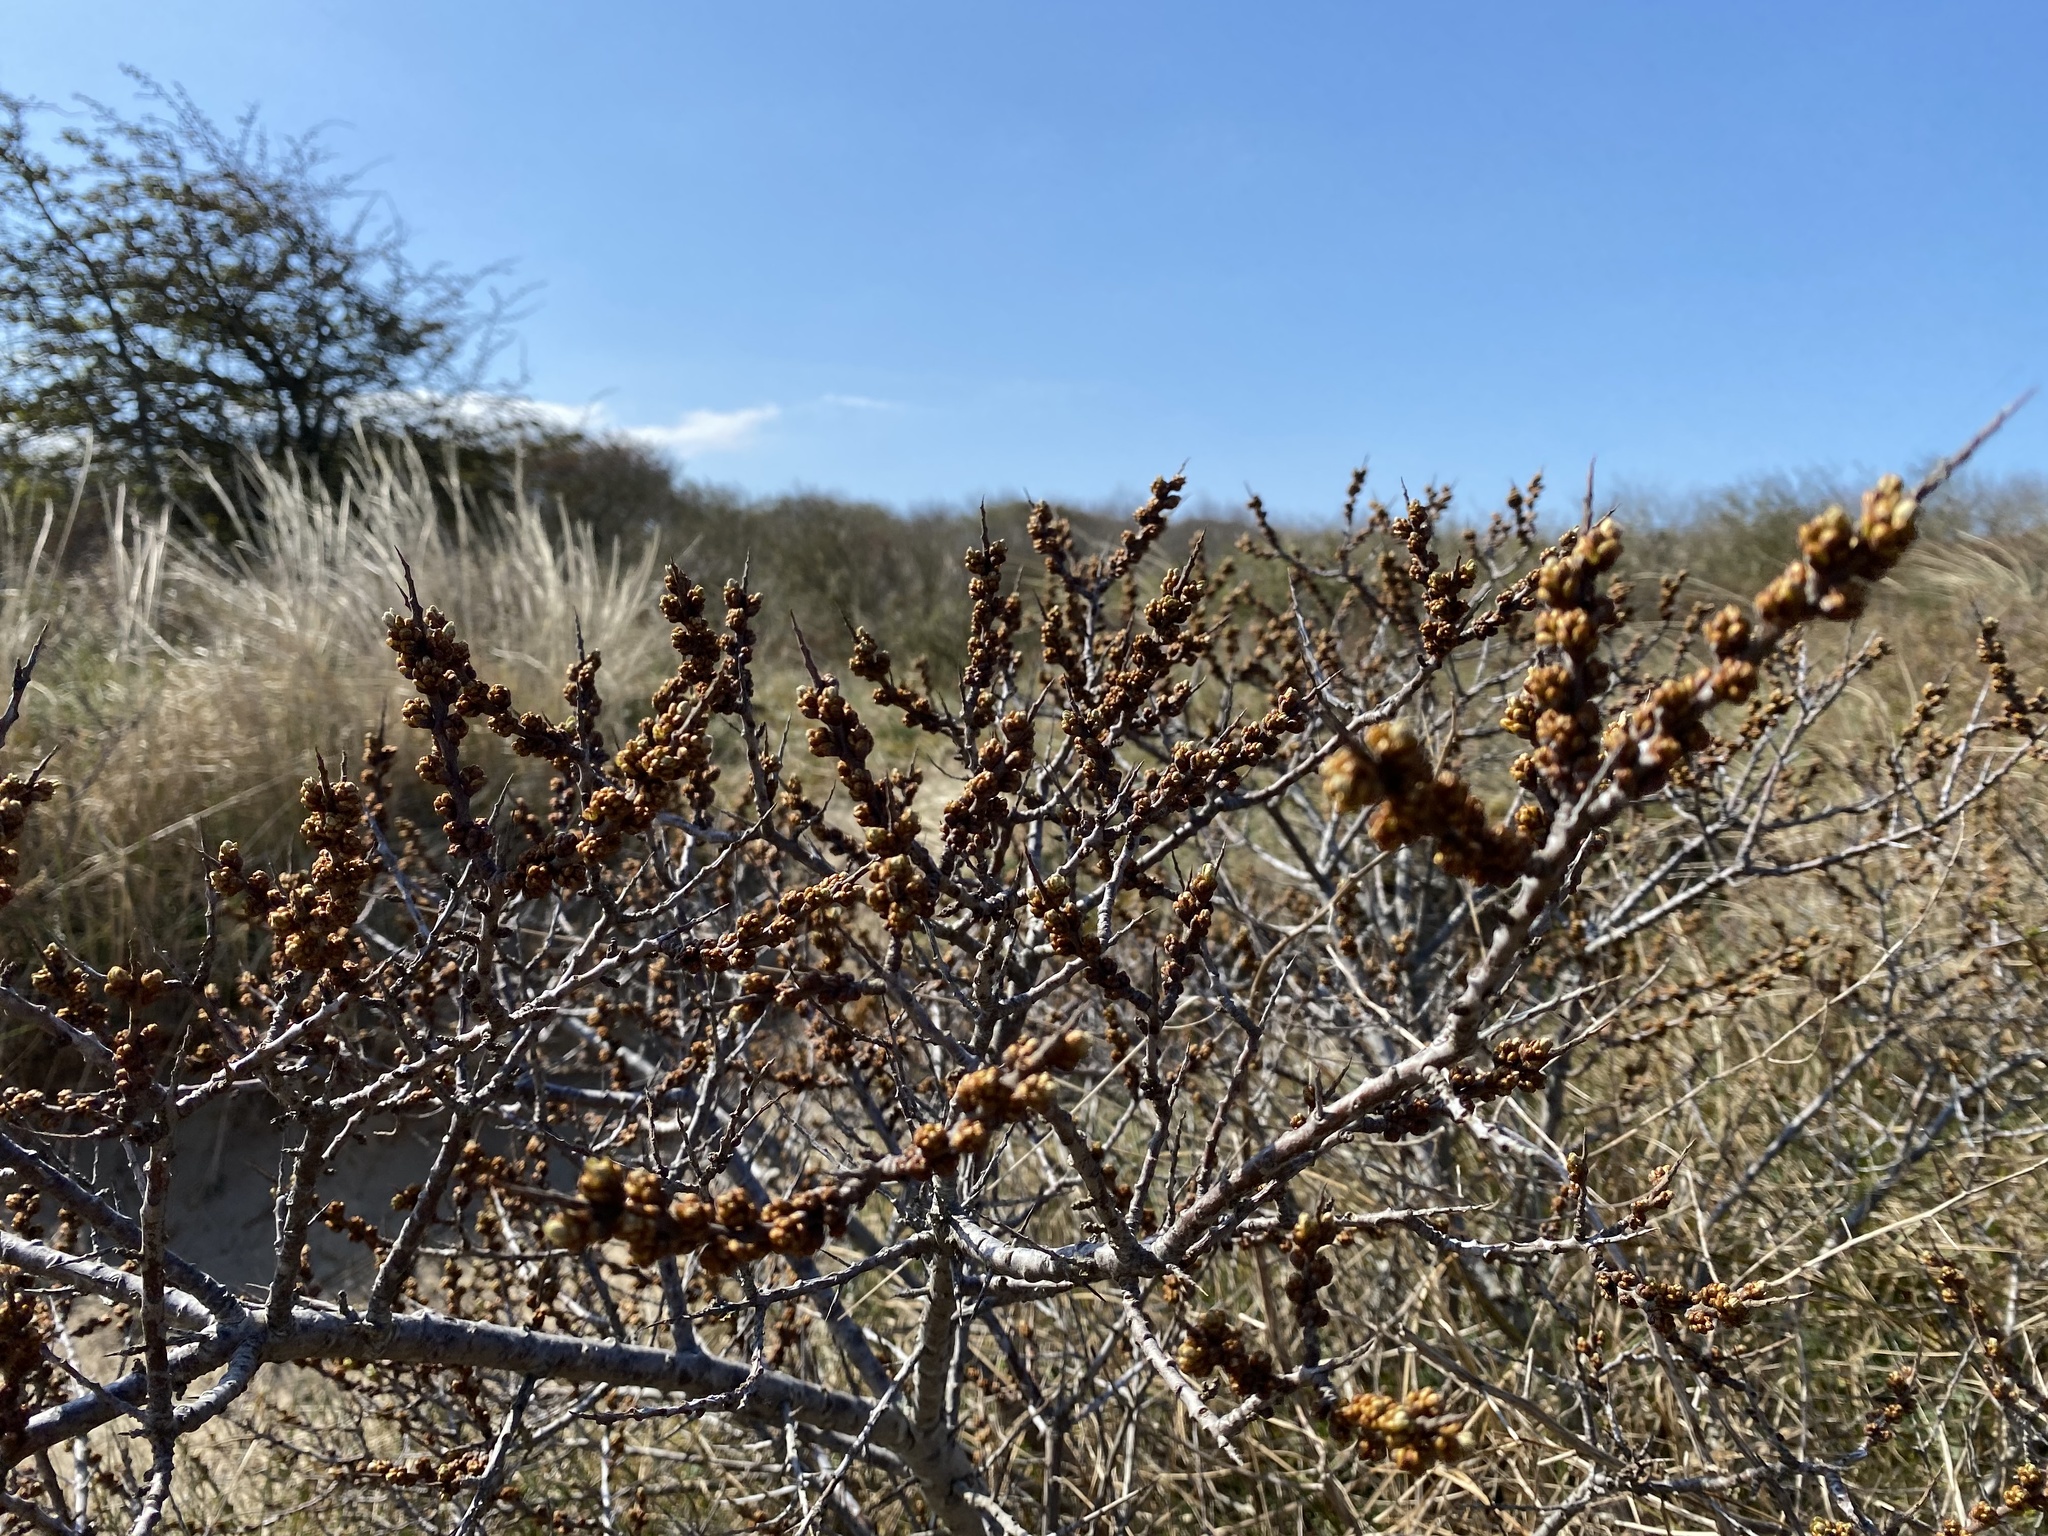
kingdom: Plantae
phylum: Tracheophyta
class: Magnoliopsida
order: Rosales
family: Elaeagnaceae
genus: Hippophae
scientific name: Hippophae rhamnoides
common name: Sea-buckthorn
